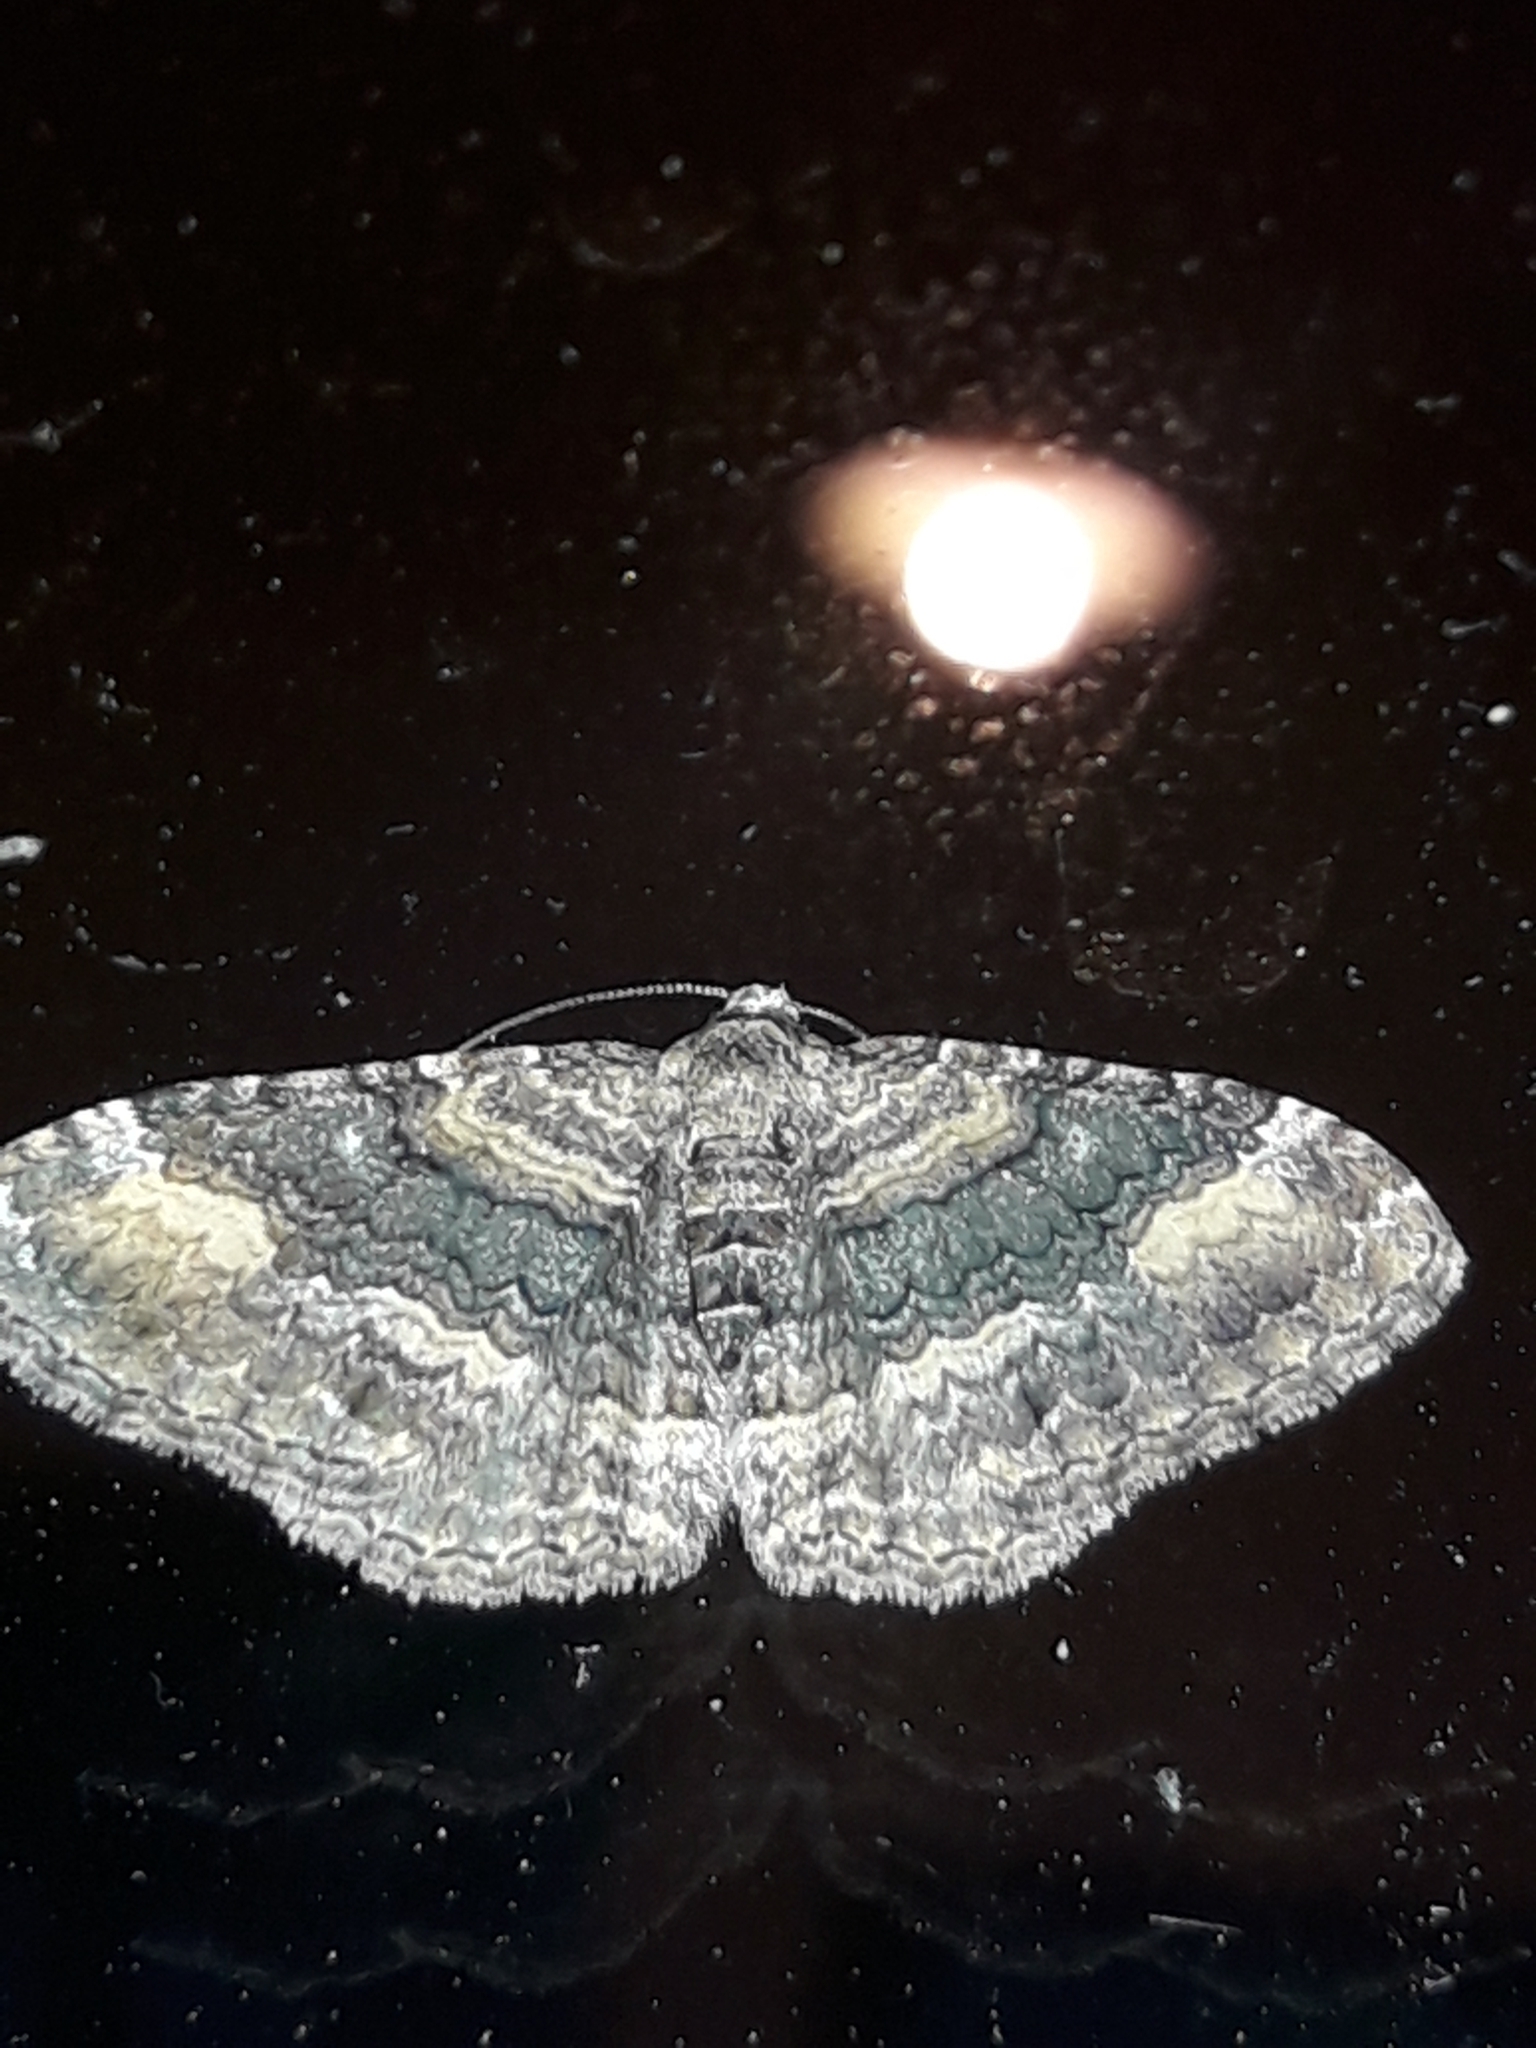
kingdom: Animalia
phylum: Arthropoda
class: Insecta
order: Lepidoptera
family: Geometridae
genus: Epyaxa
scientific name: Epyaxa lucidata
